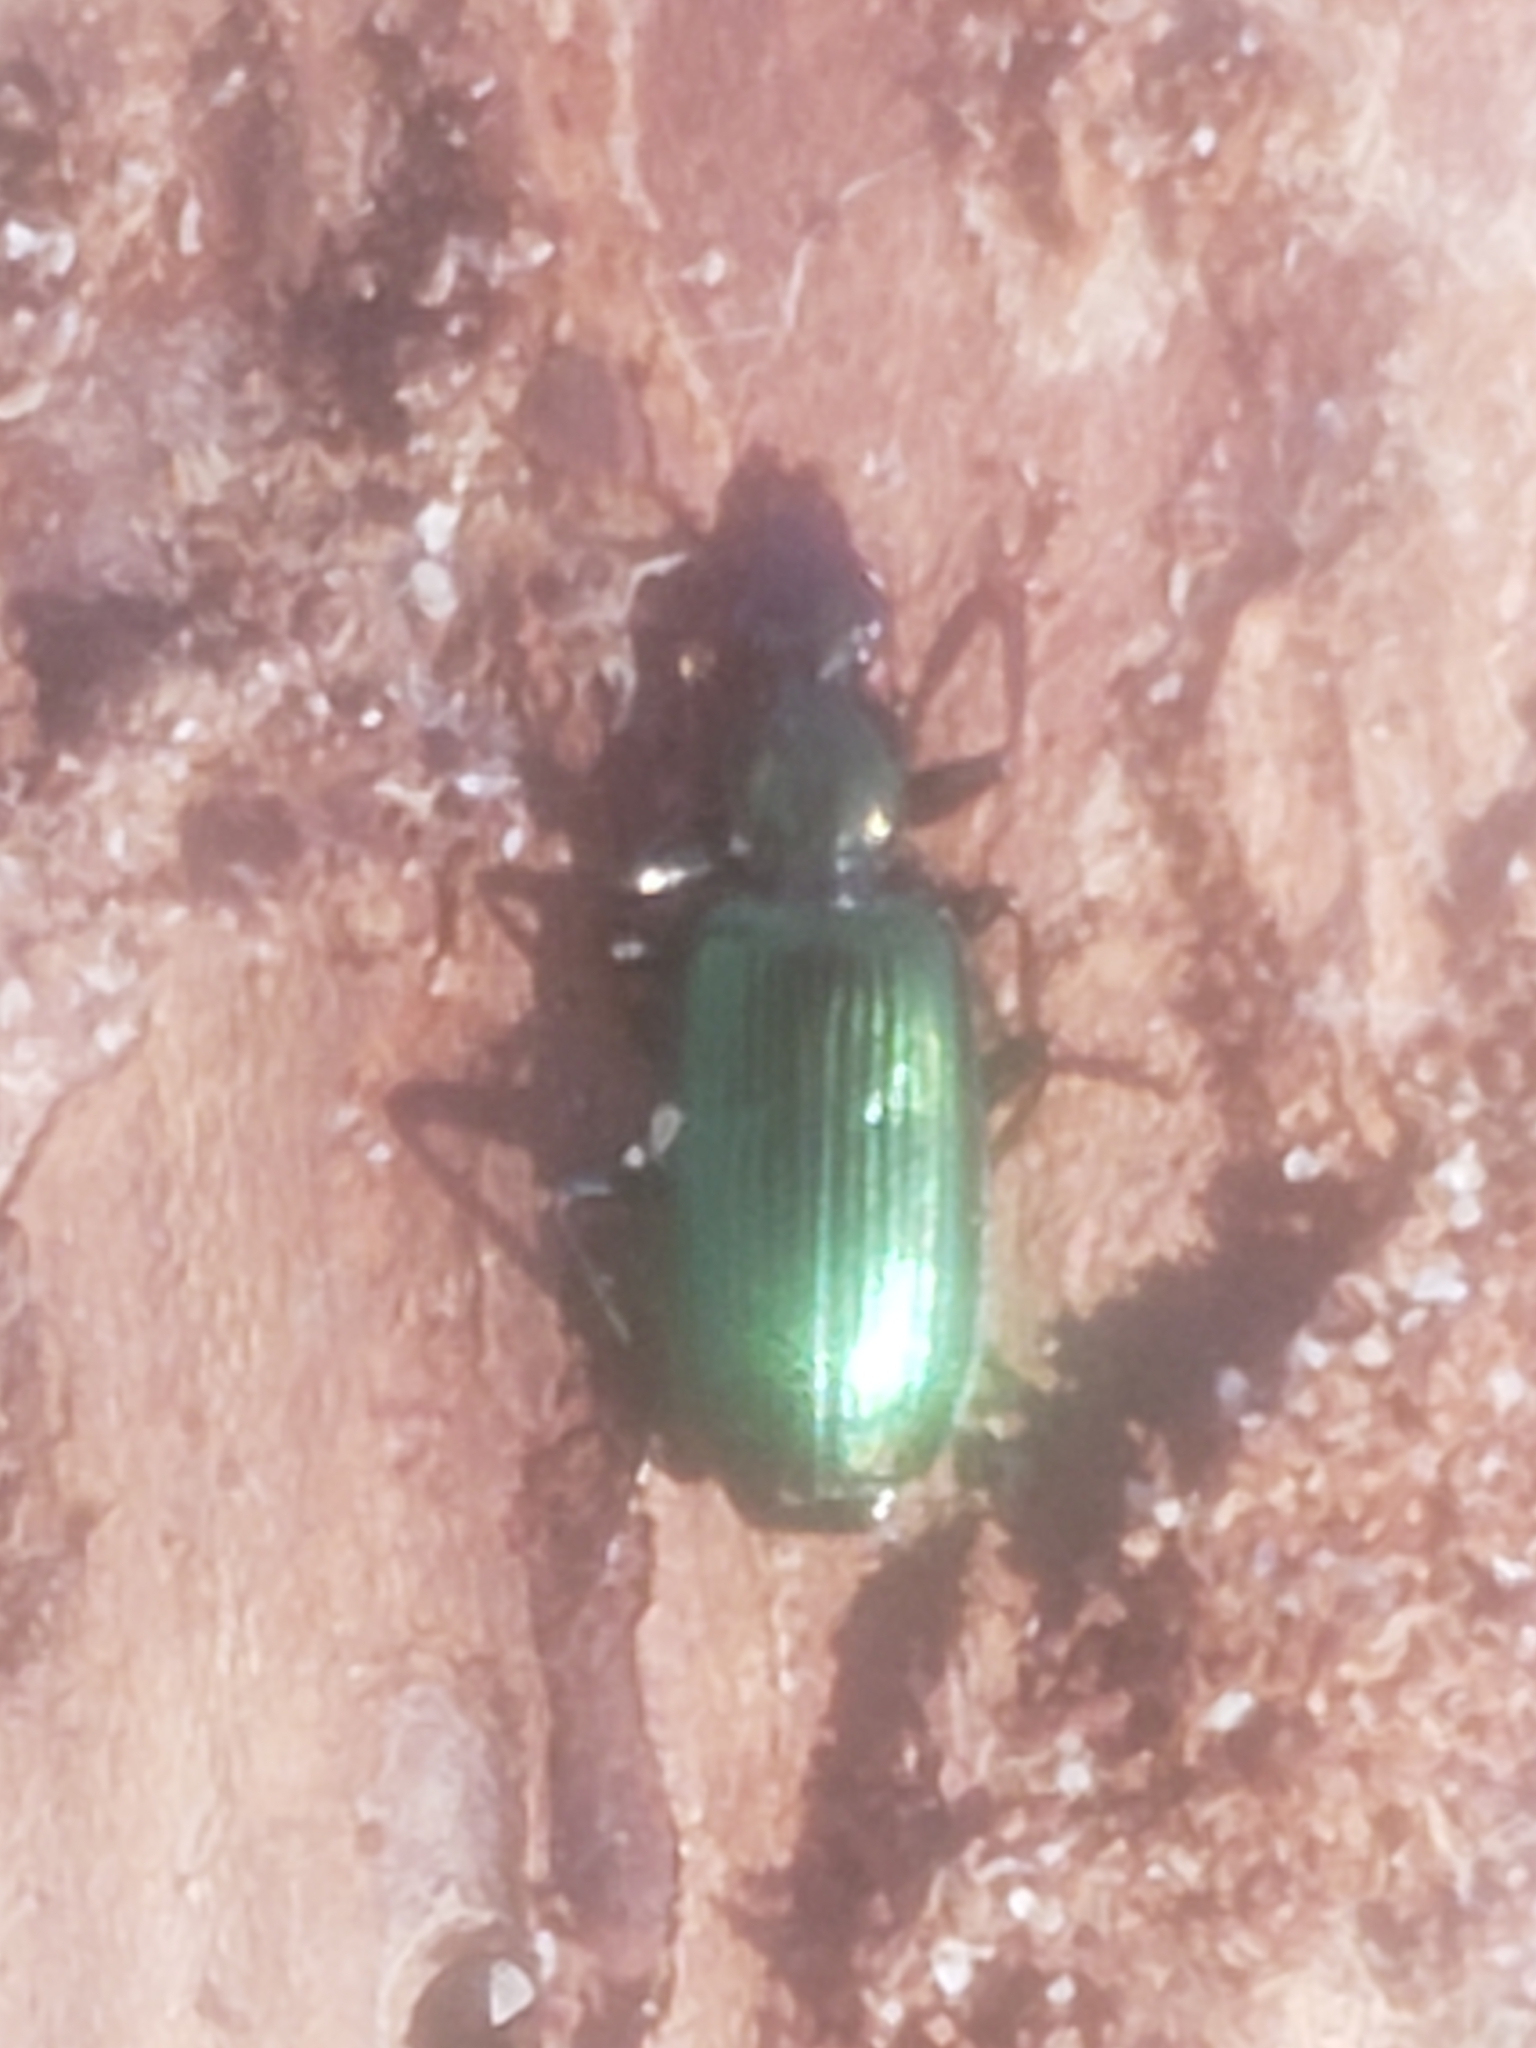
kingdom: Animalia
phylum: Arthropoda
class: Insecta
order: Coleoptera
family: Carabidae
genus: Calleida
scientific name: Calleida viridipennis
